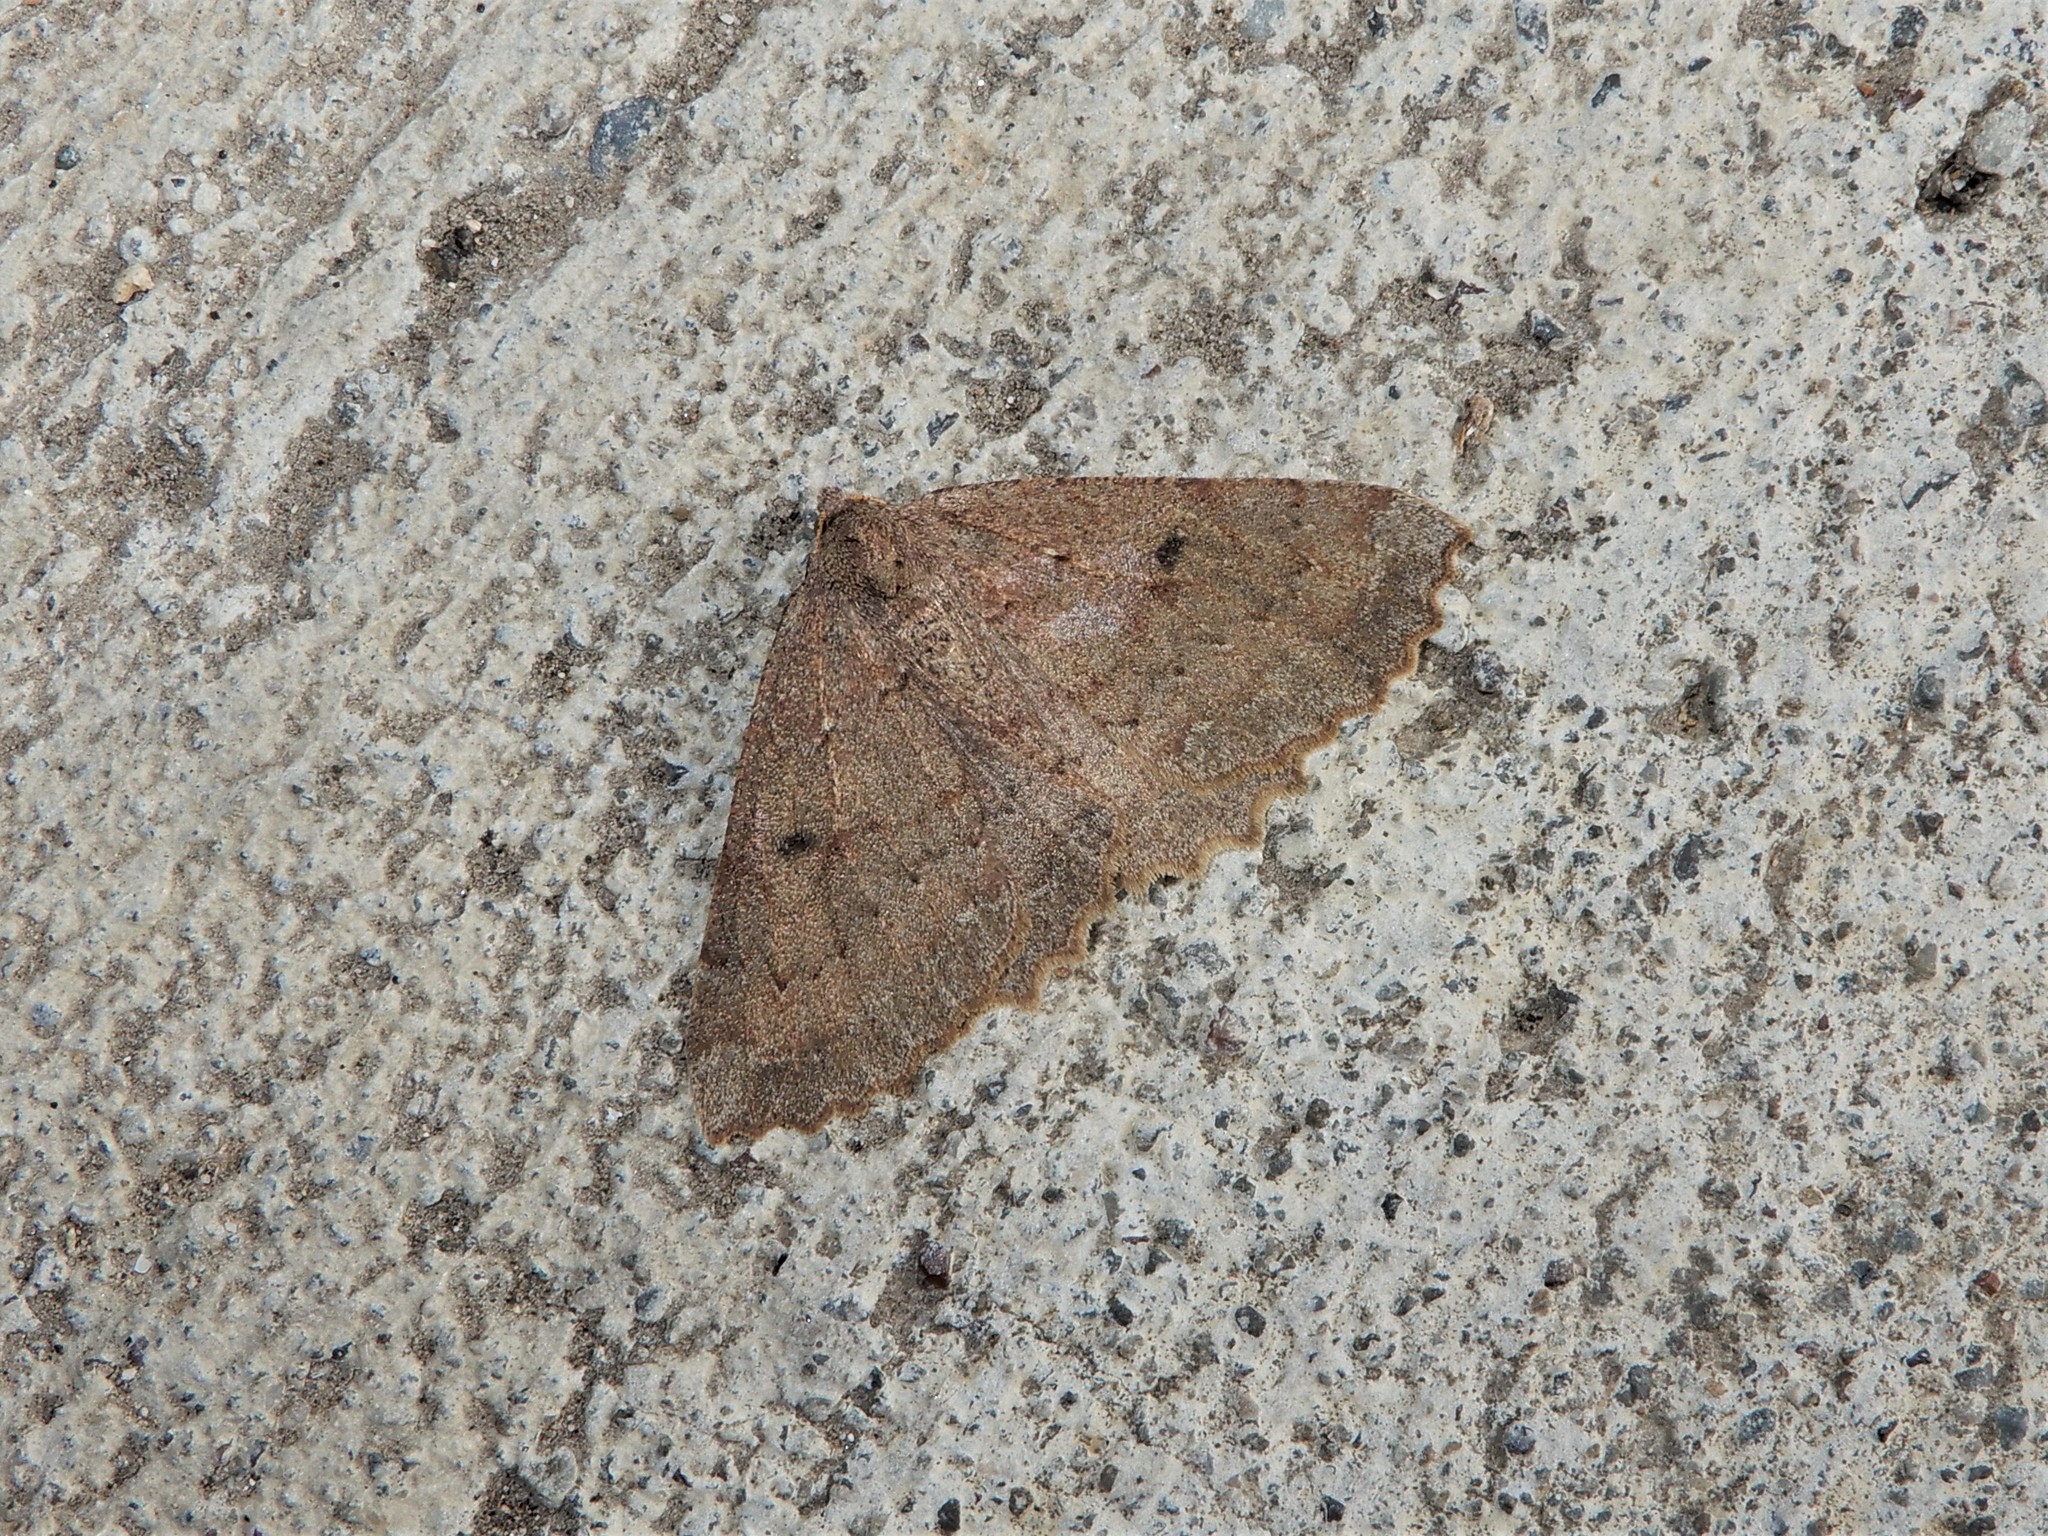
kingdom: Animalia
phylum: Arthropoda
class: Insecta
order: Lepidoptera
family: Geometridae
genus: Cleora
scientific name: Cleora scriptaria
